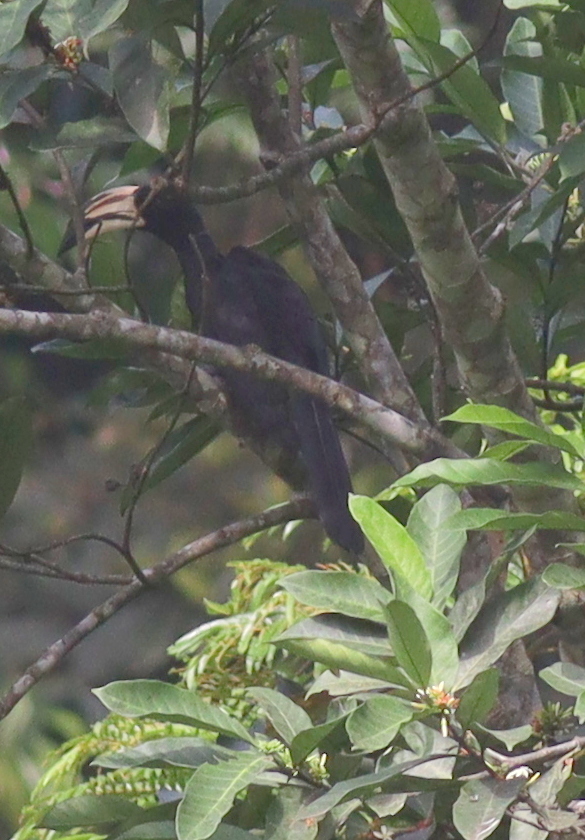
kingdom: Animalia
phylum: Chordata
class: Aves
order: Bucerotiformes
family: Bucerotidae
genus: Lophoceros
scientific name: Lophoceros fasciatus
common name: African pied hornbill
